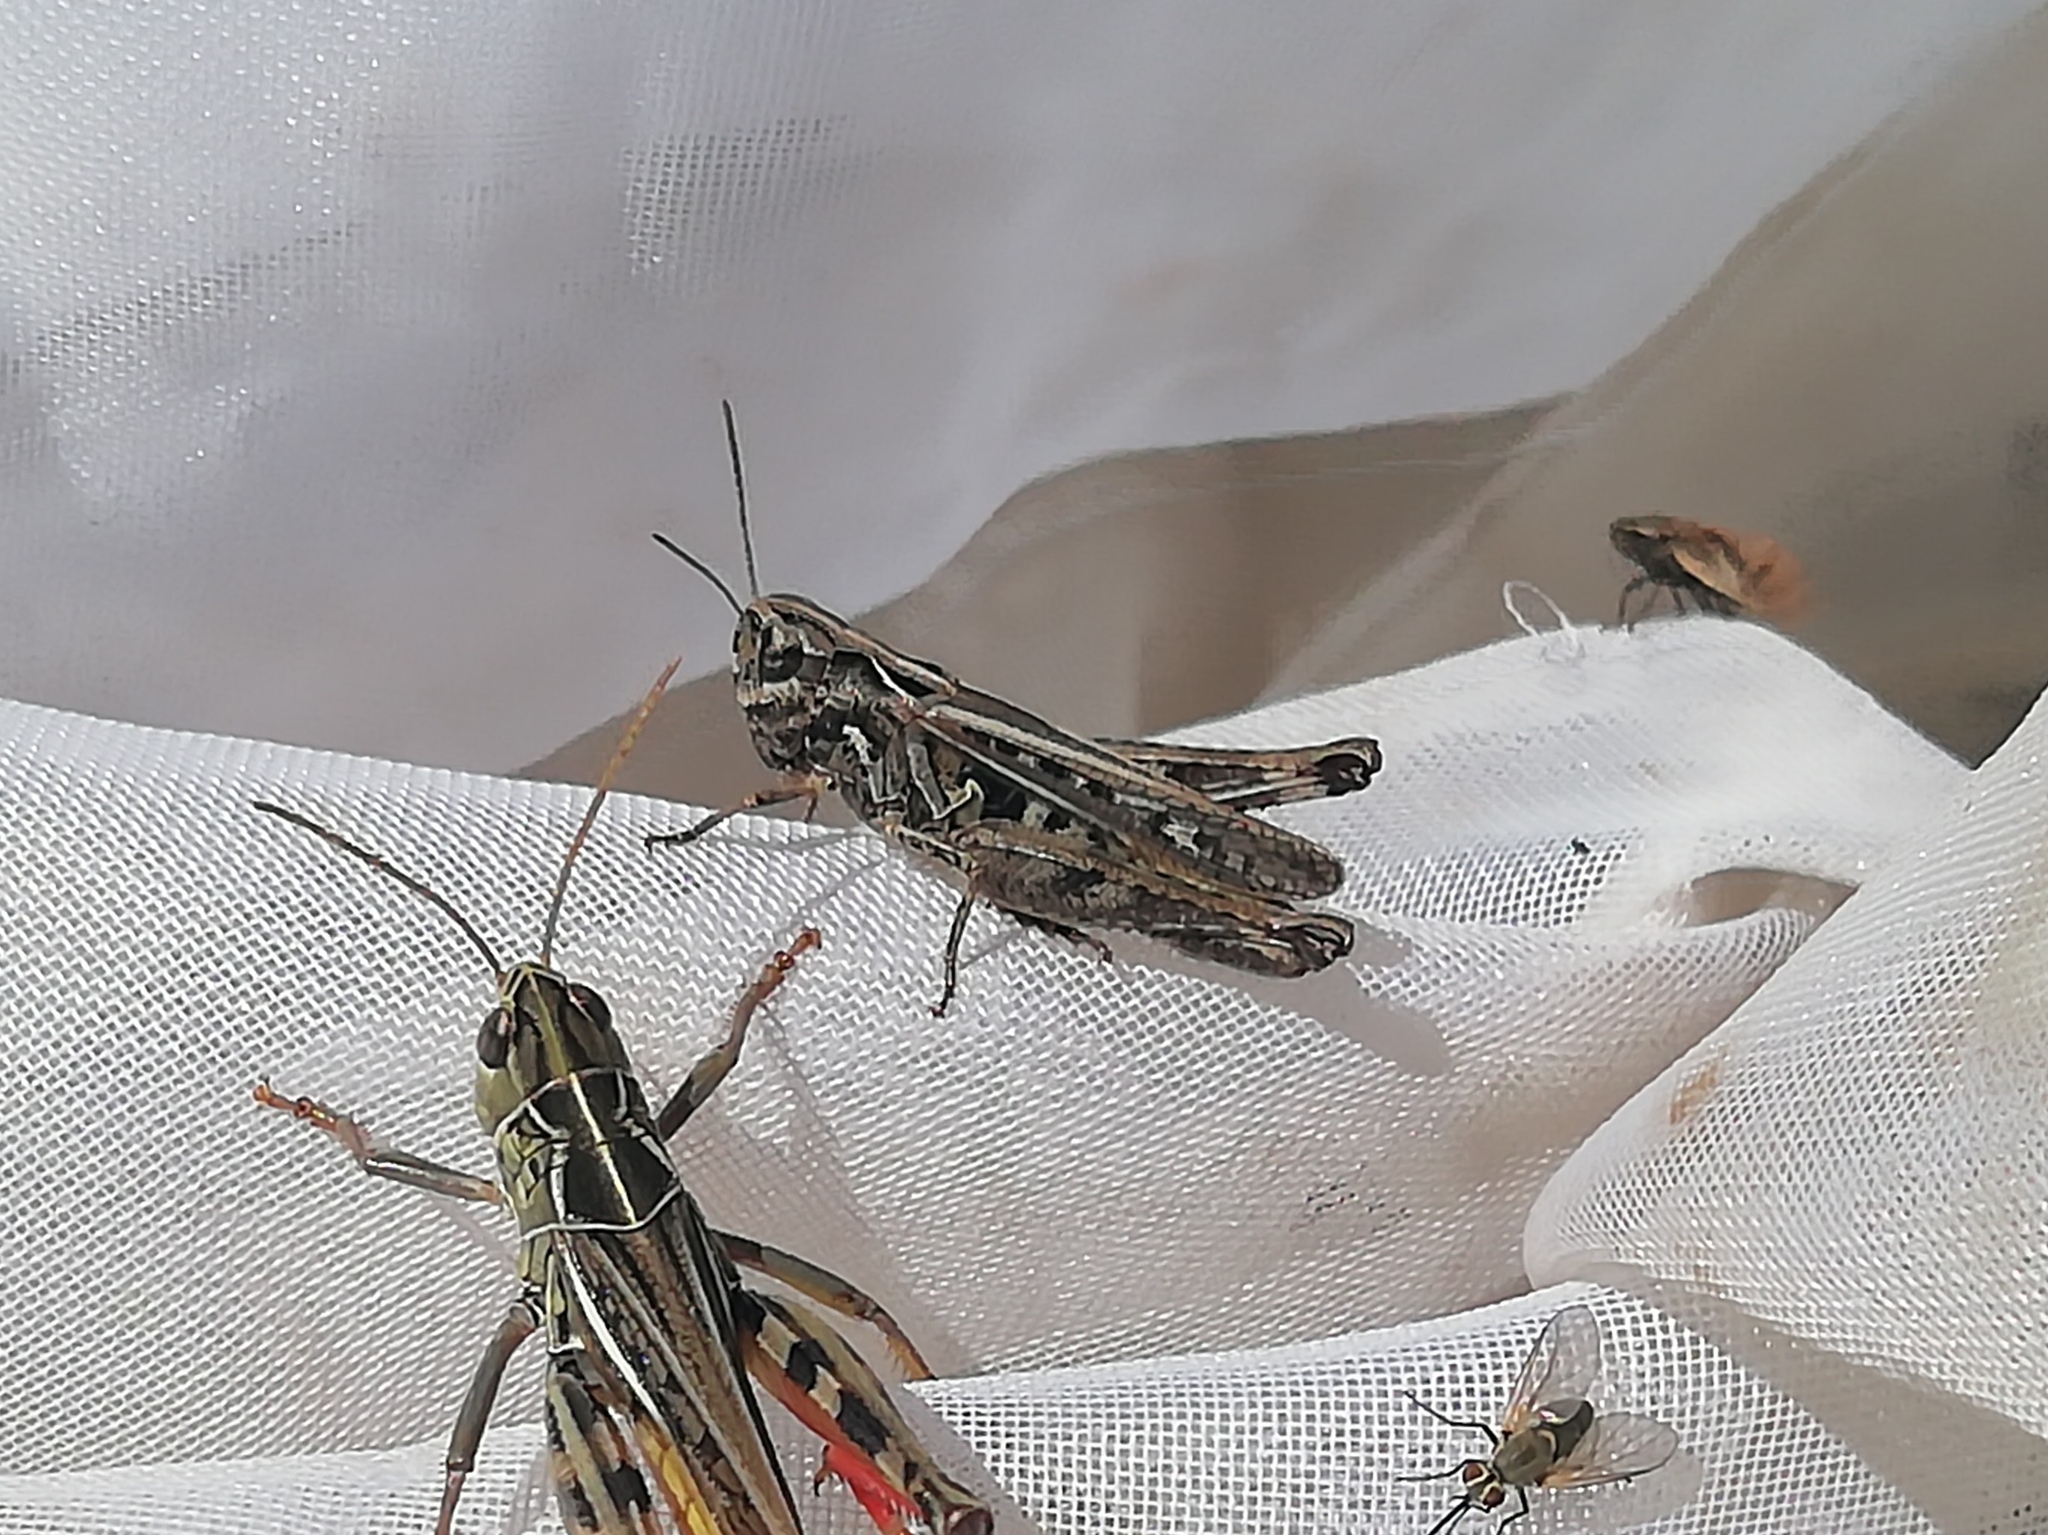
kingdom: Animalia
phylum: Arthropoda
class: Insecta
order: Orthoptera
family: Acrididae
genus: Omocestus
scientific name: Omocestus haemorrhoidalis
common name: Orange-tipped grasshopper
